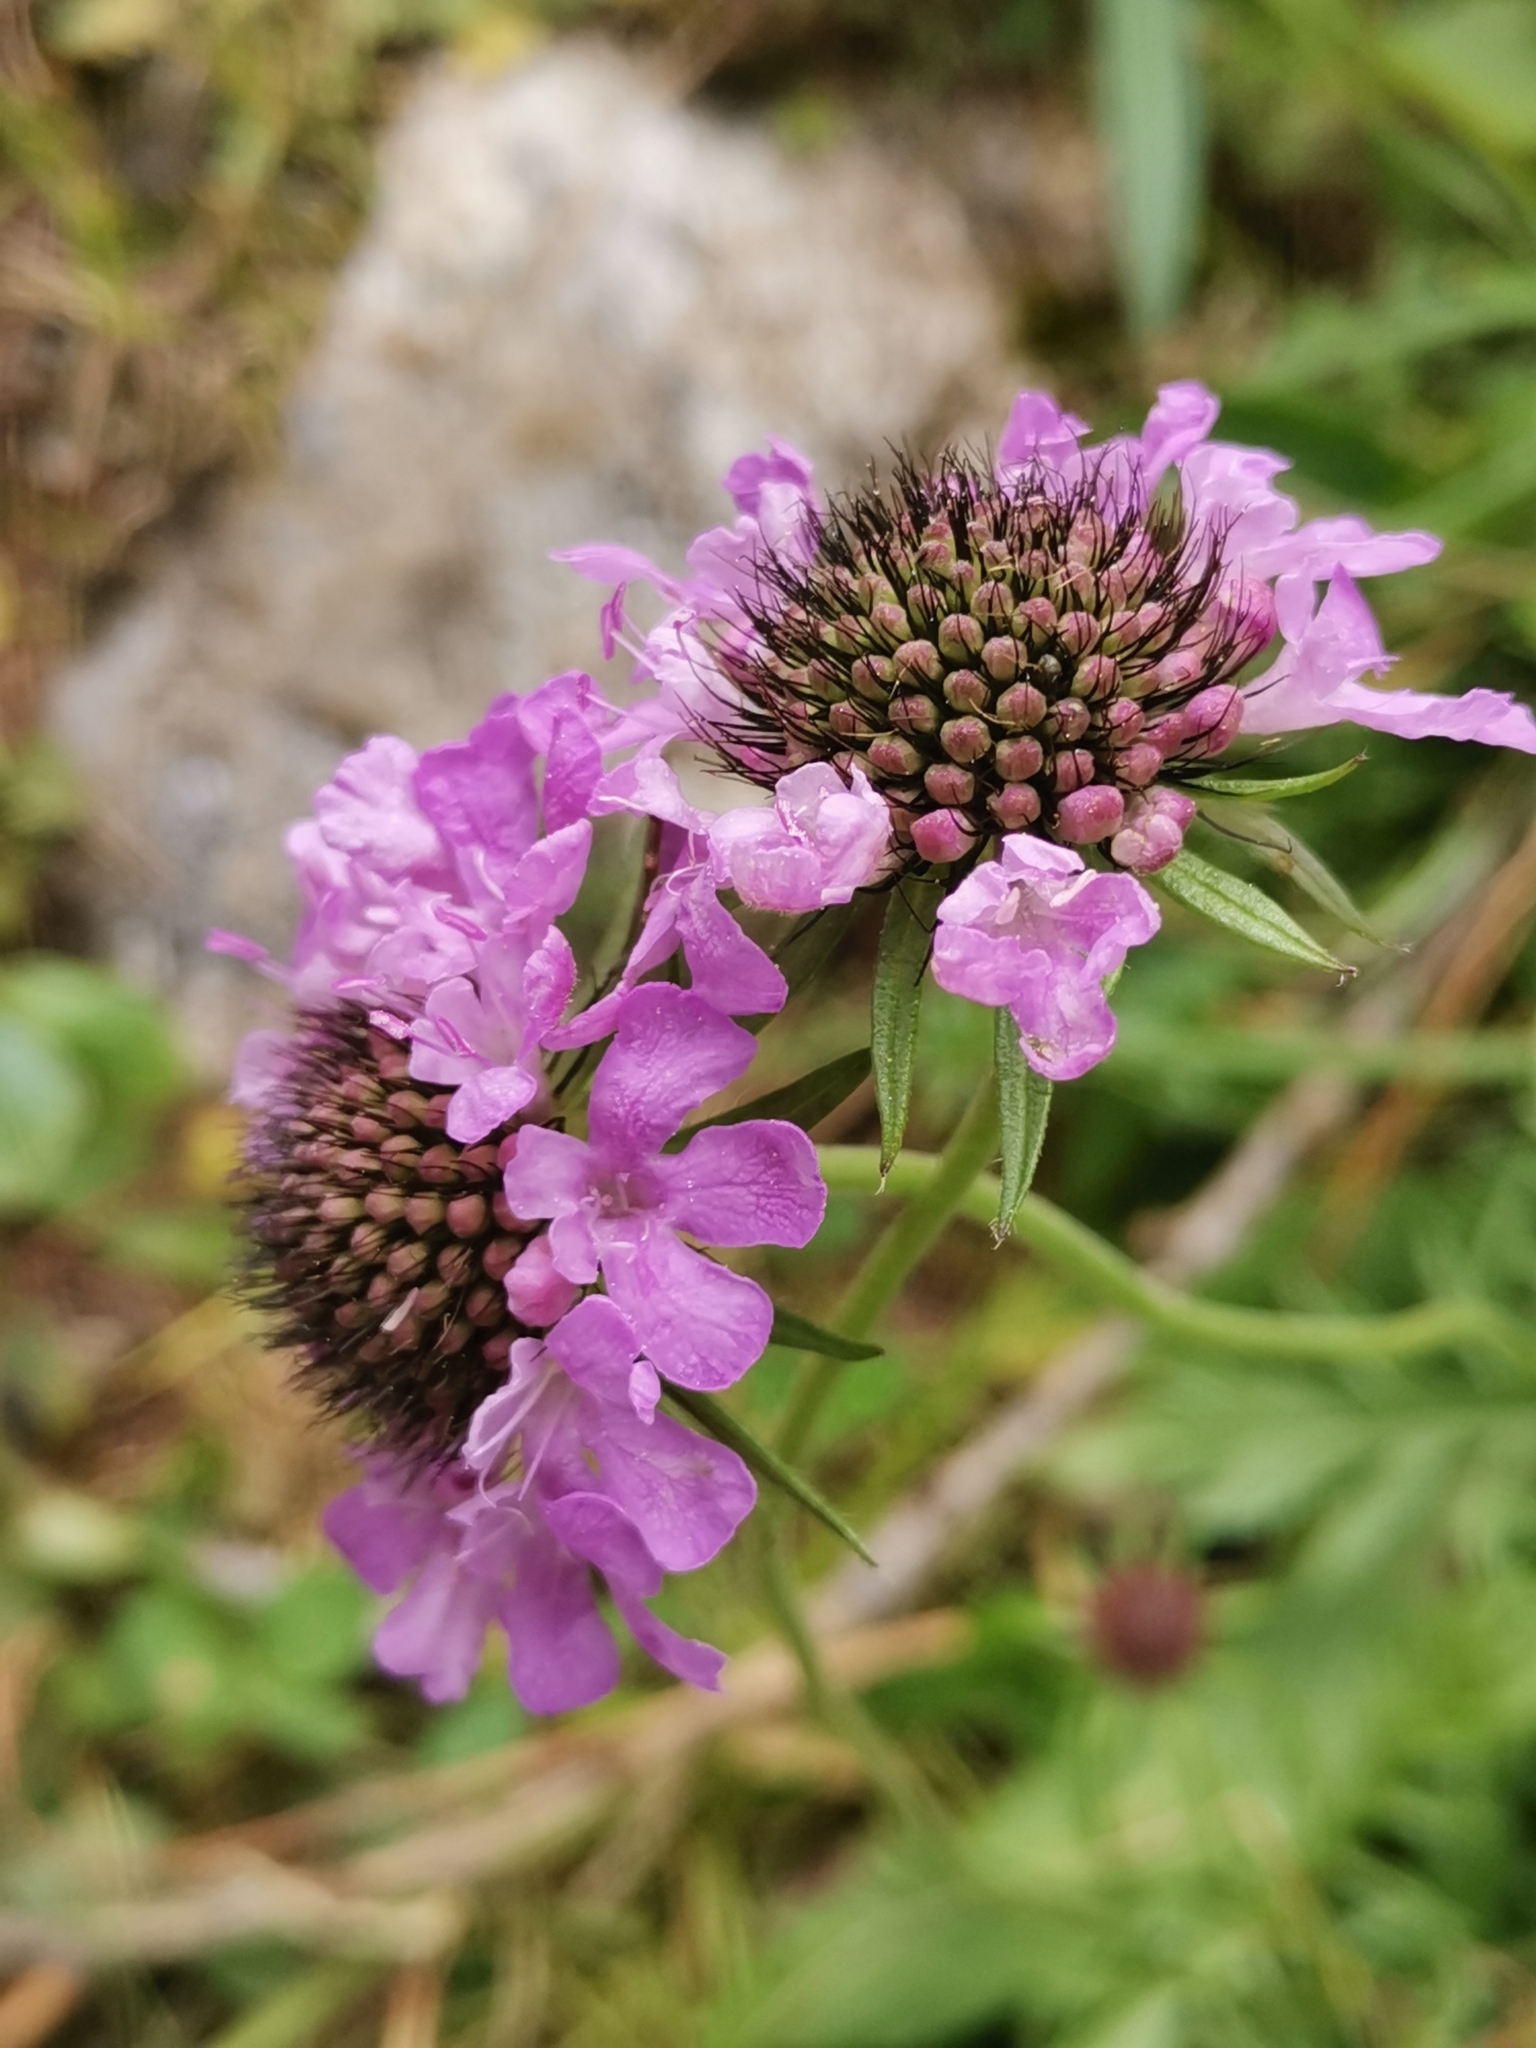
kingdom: Plantae
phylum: Tracheophyta
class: Magnoliopsida
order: Dipsacales
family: Caprifoliaceae
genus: Scabiosa
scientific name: Scabiosa lucida
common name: Shining scabious
